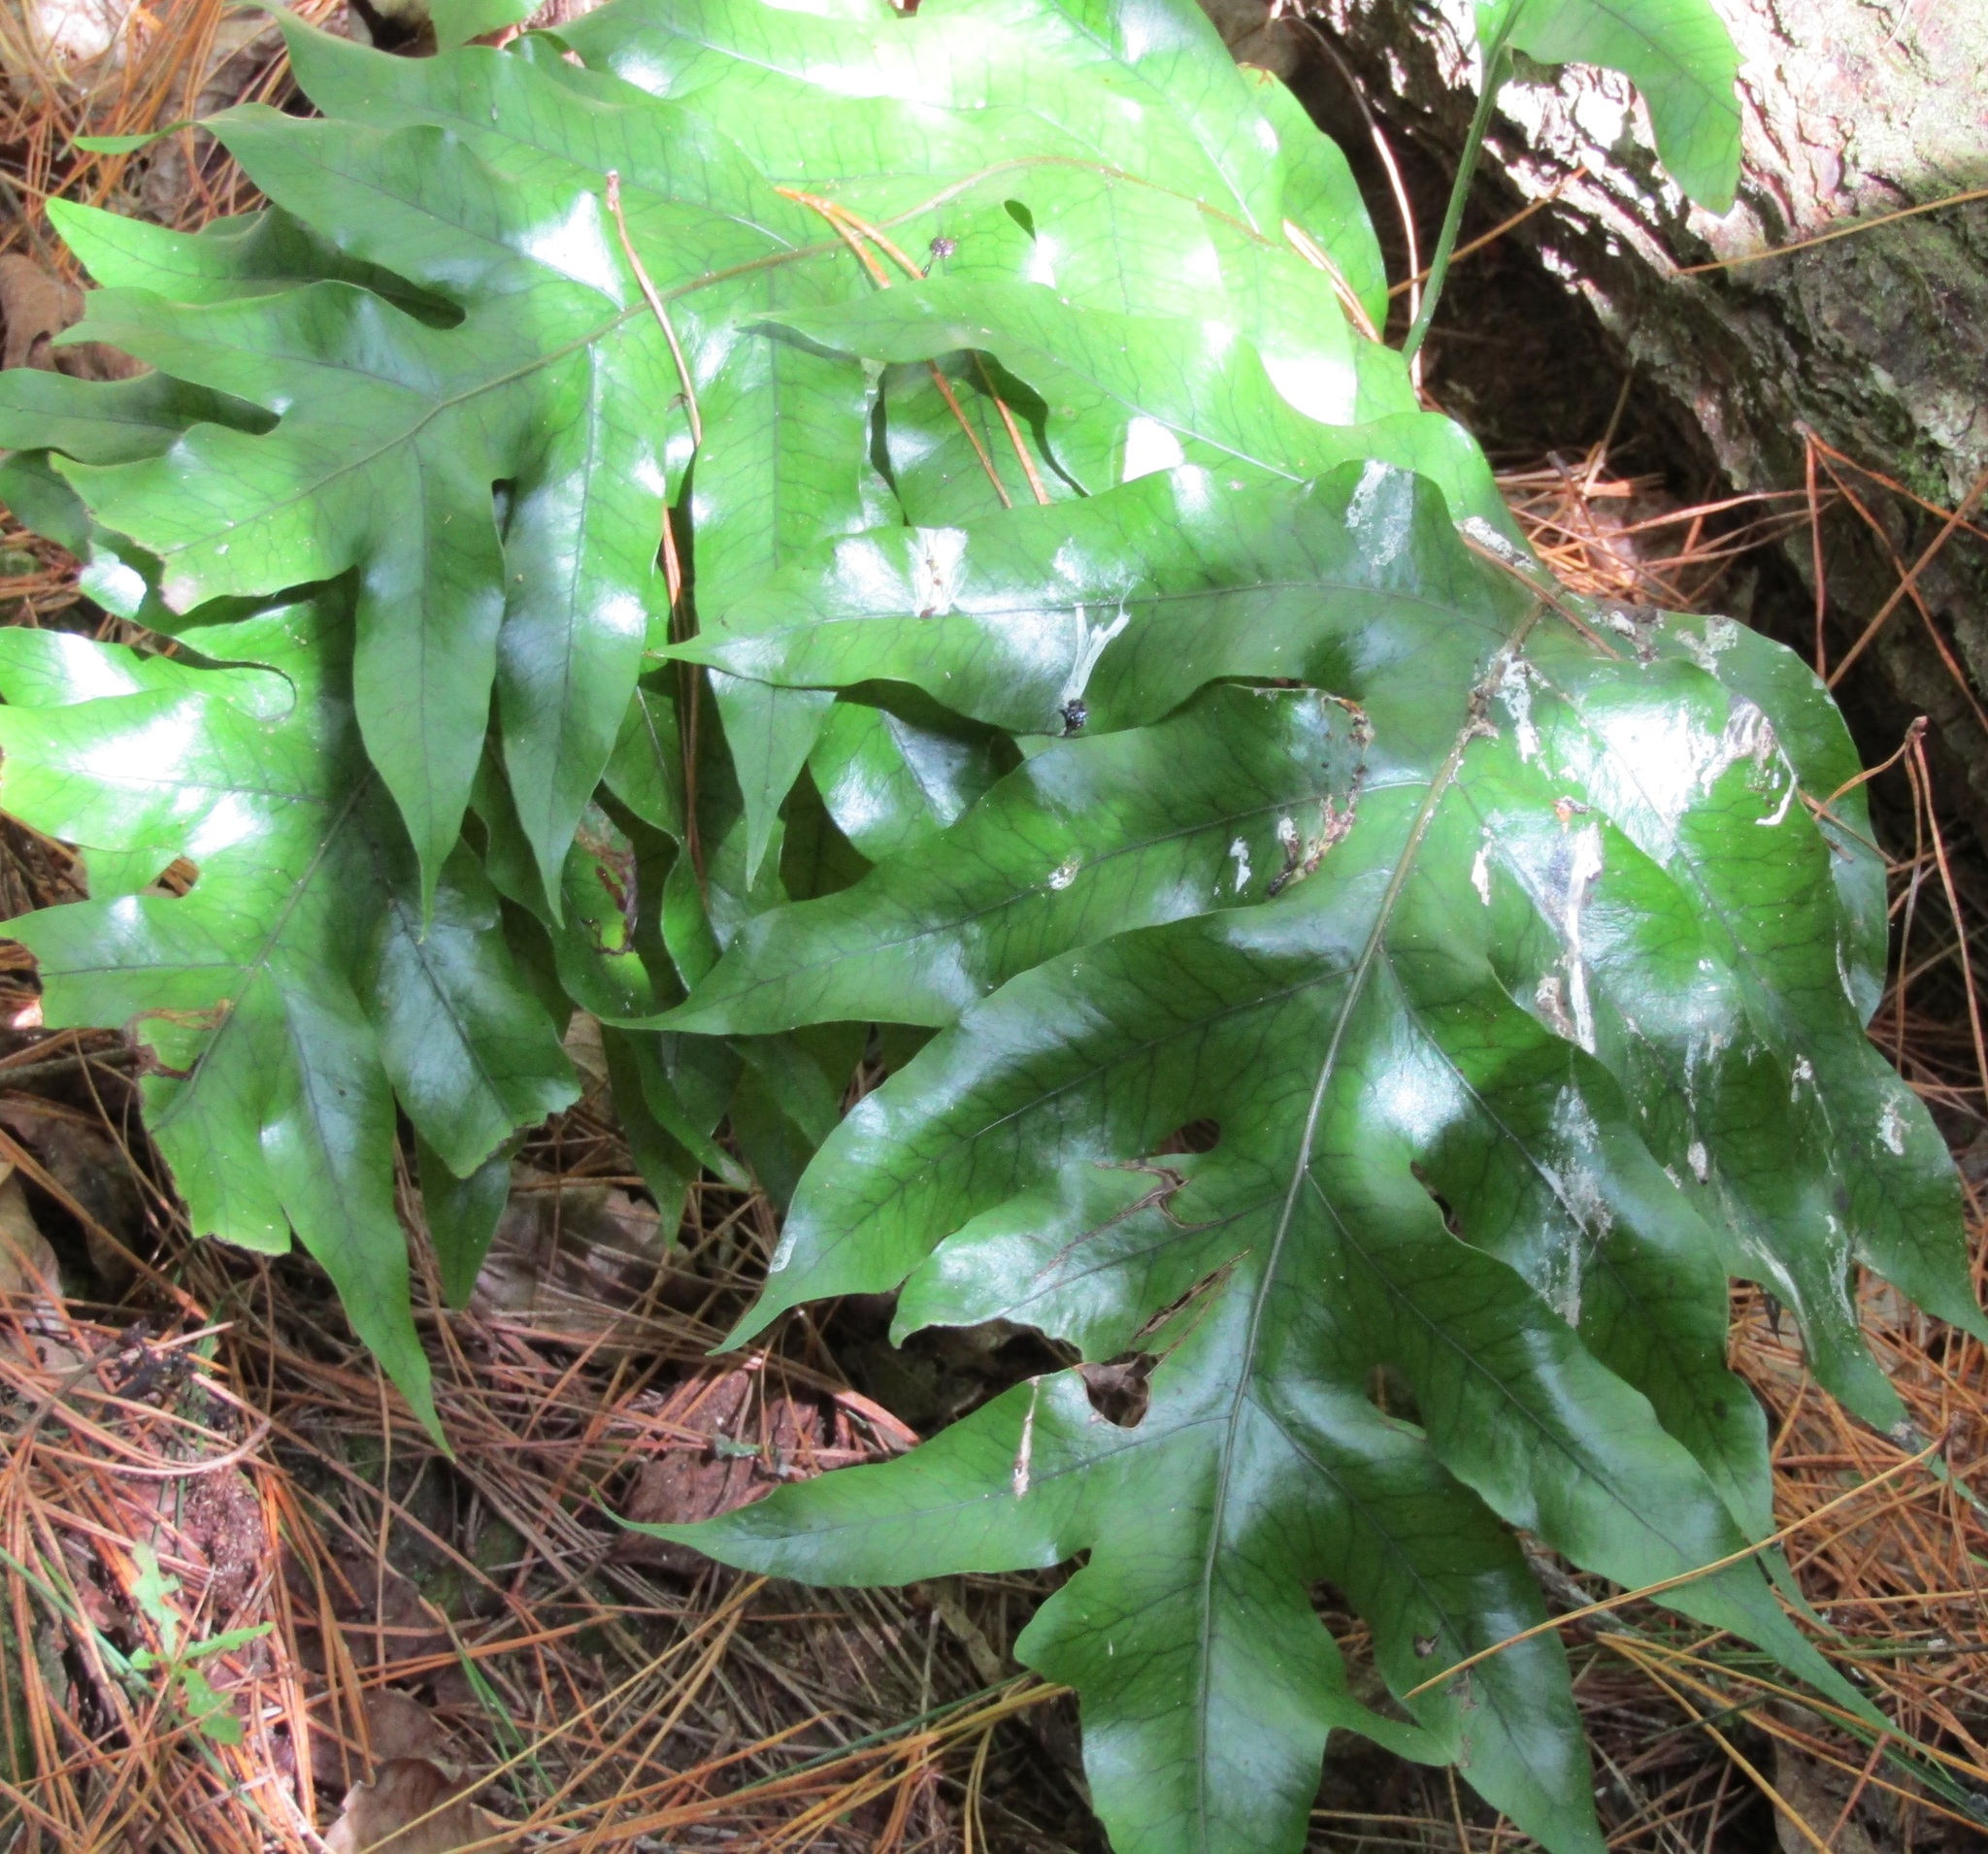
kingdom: Plantae
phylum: Tracheophyta
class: Polypodiopsida
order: Polypodiales
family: Polypodiaceae
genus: Lecanopteris
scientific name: Lecanopteris pustulata
